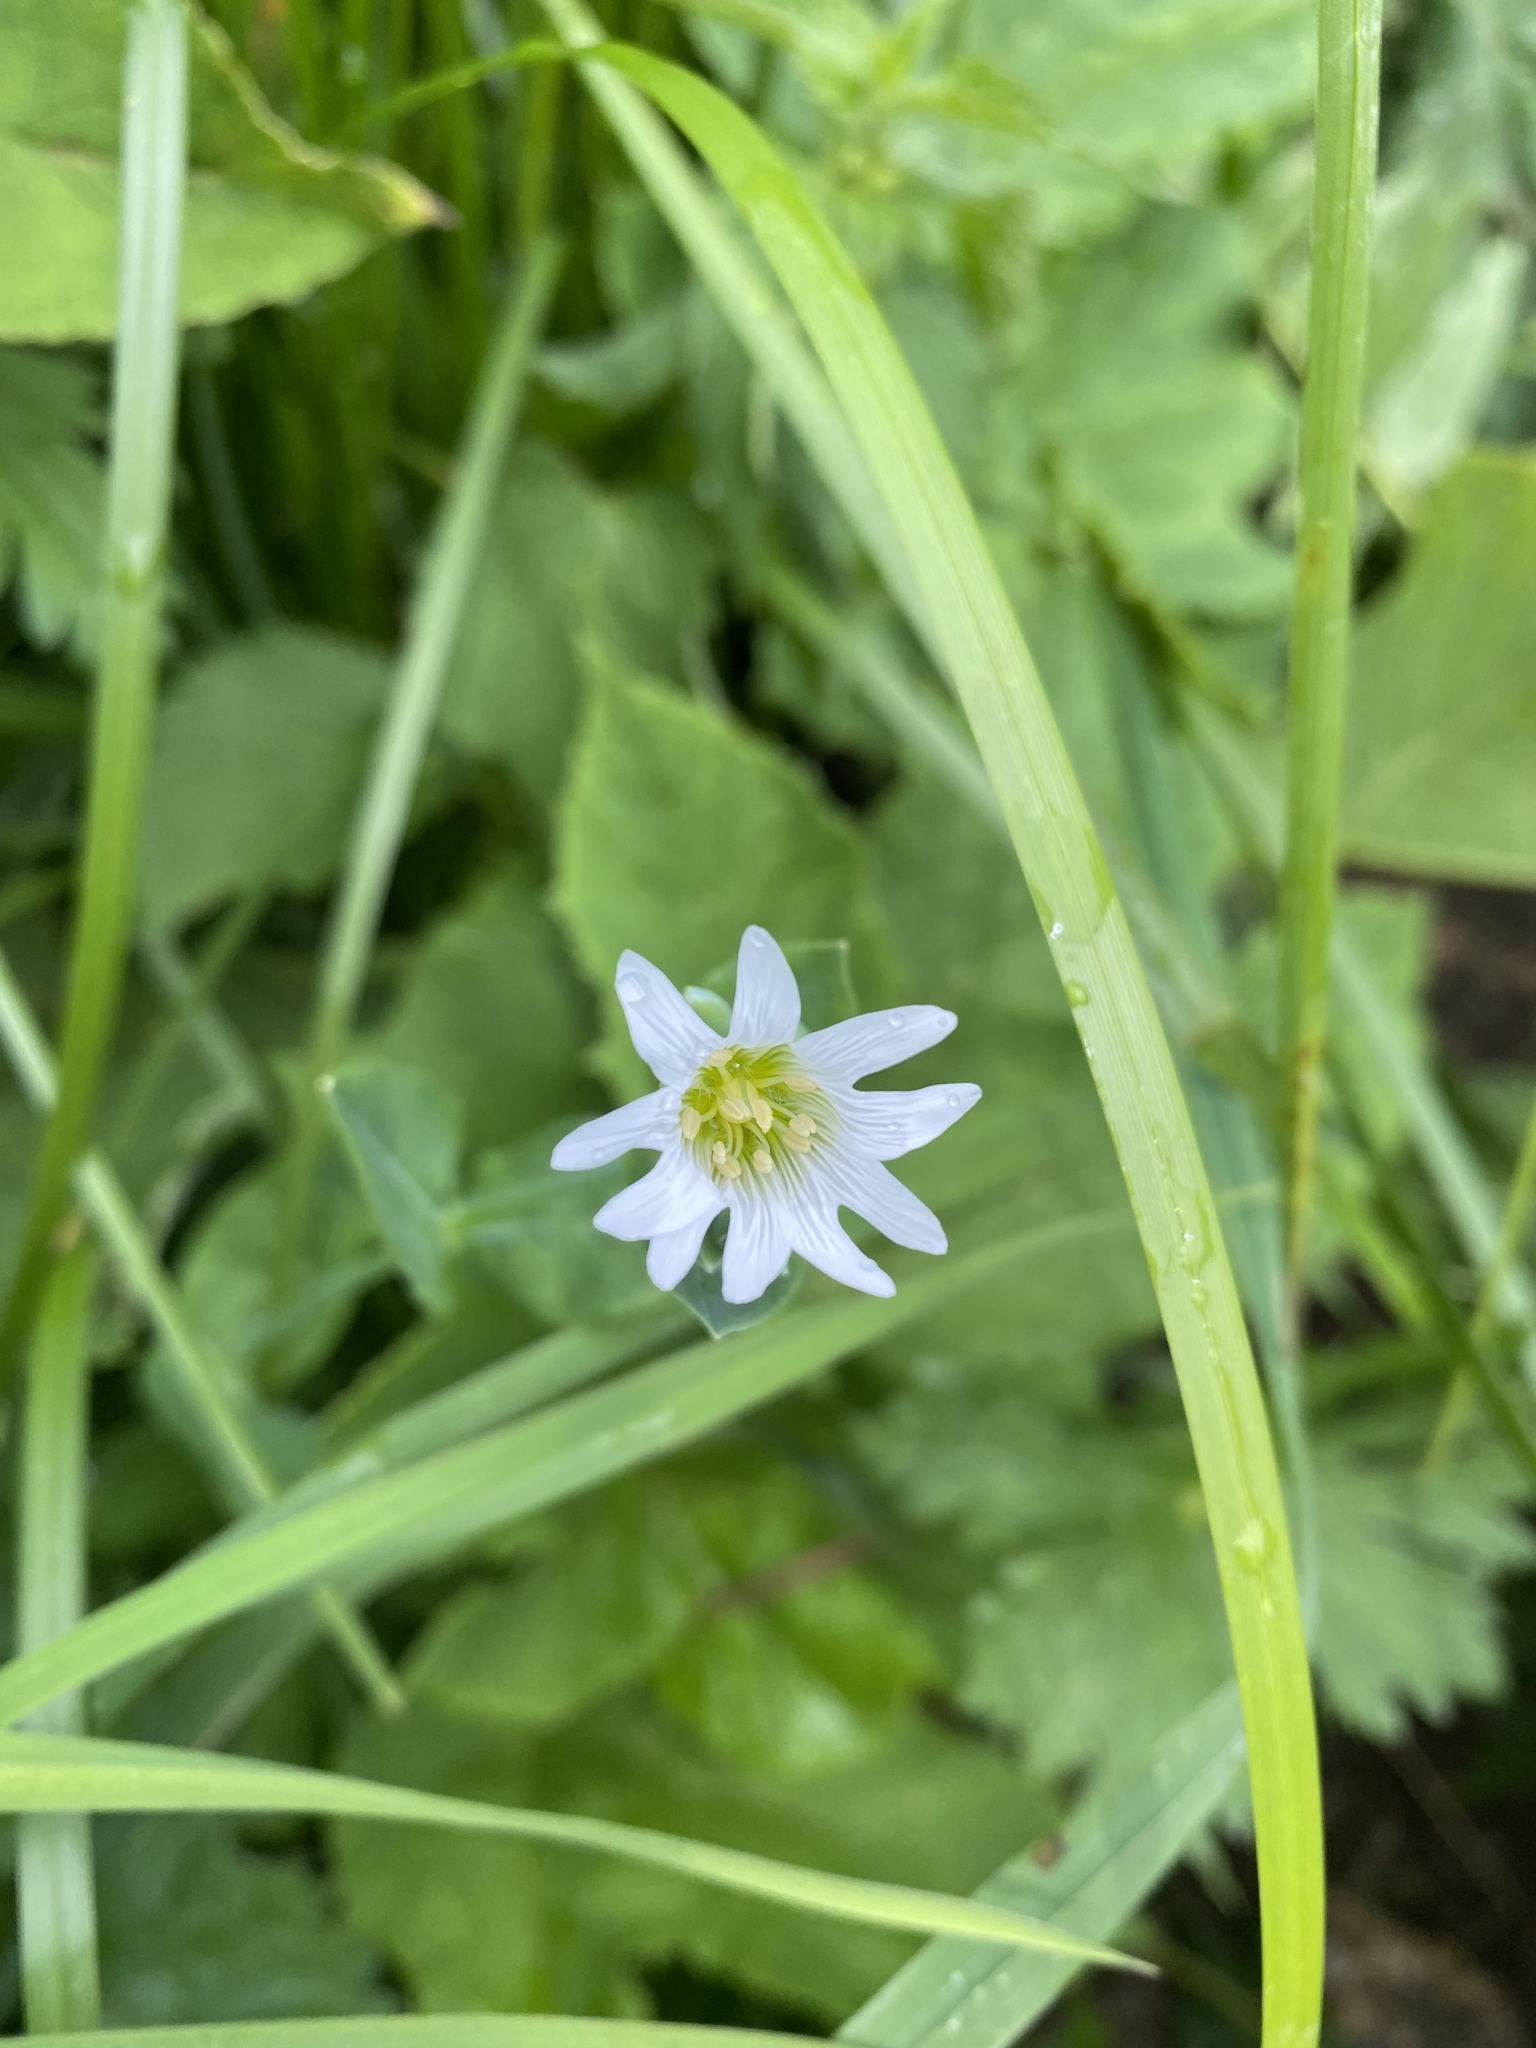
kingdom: Plantae
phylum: Tracheophyta
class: Magnoliopsida
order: Caryophyllales
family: Caryophyllaceae
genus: Cerastium
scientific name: Cerastium davuricum
